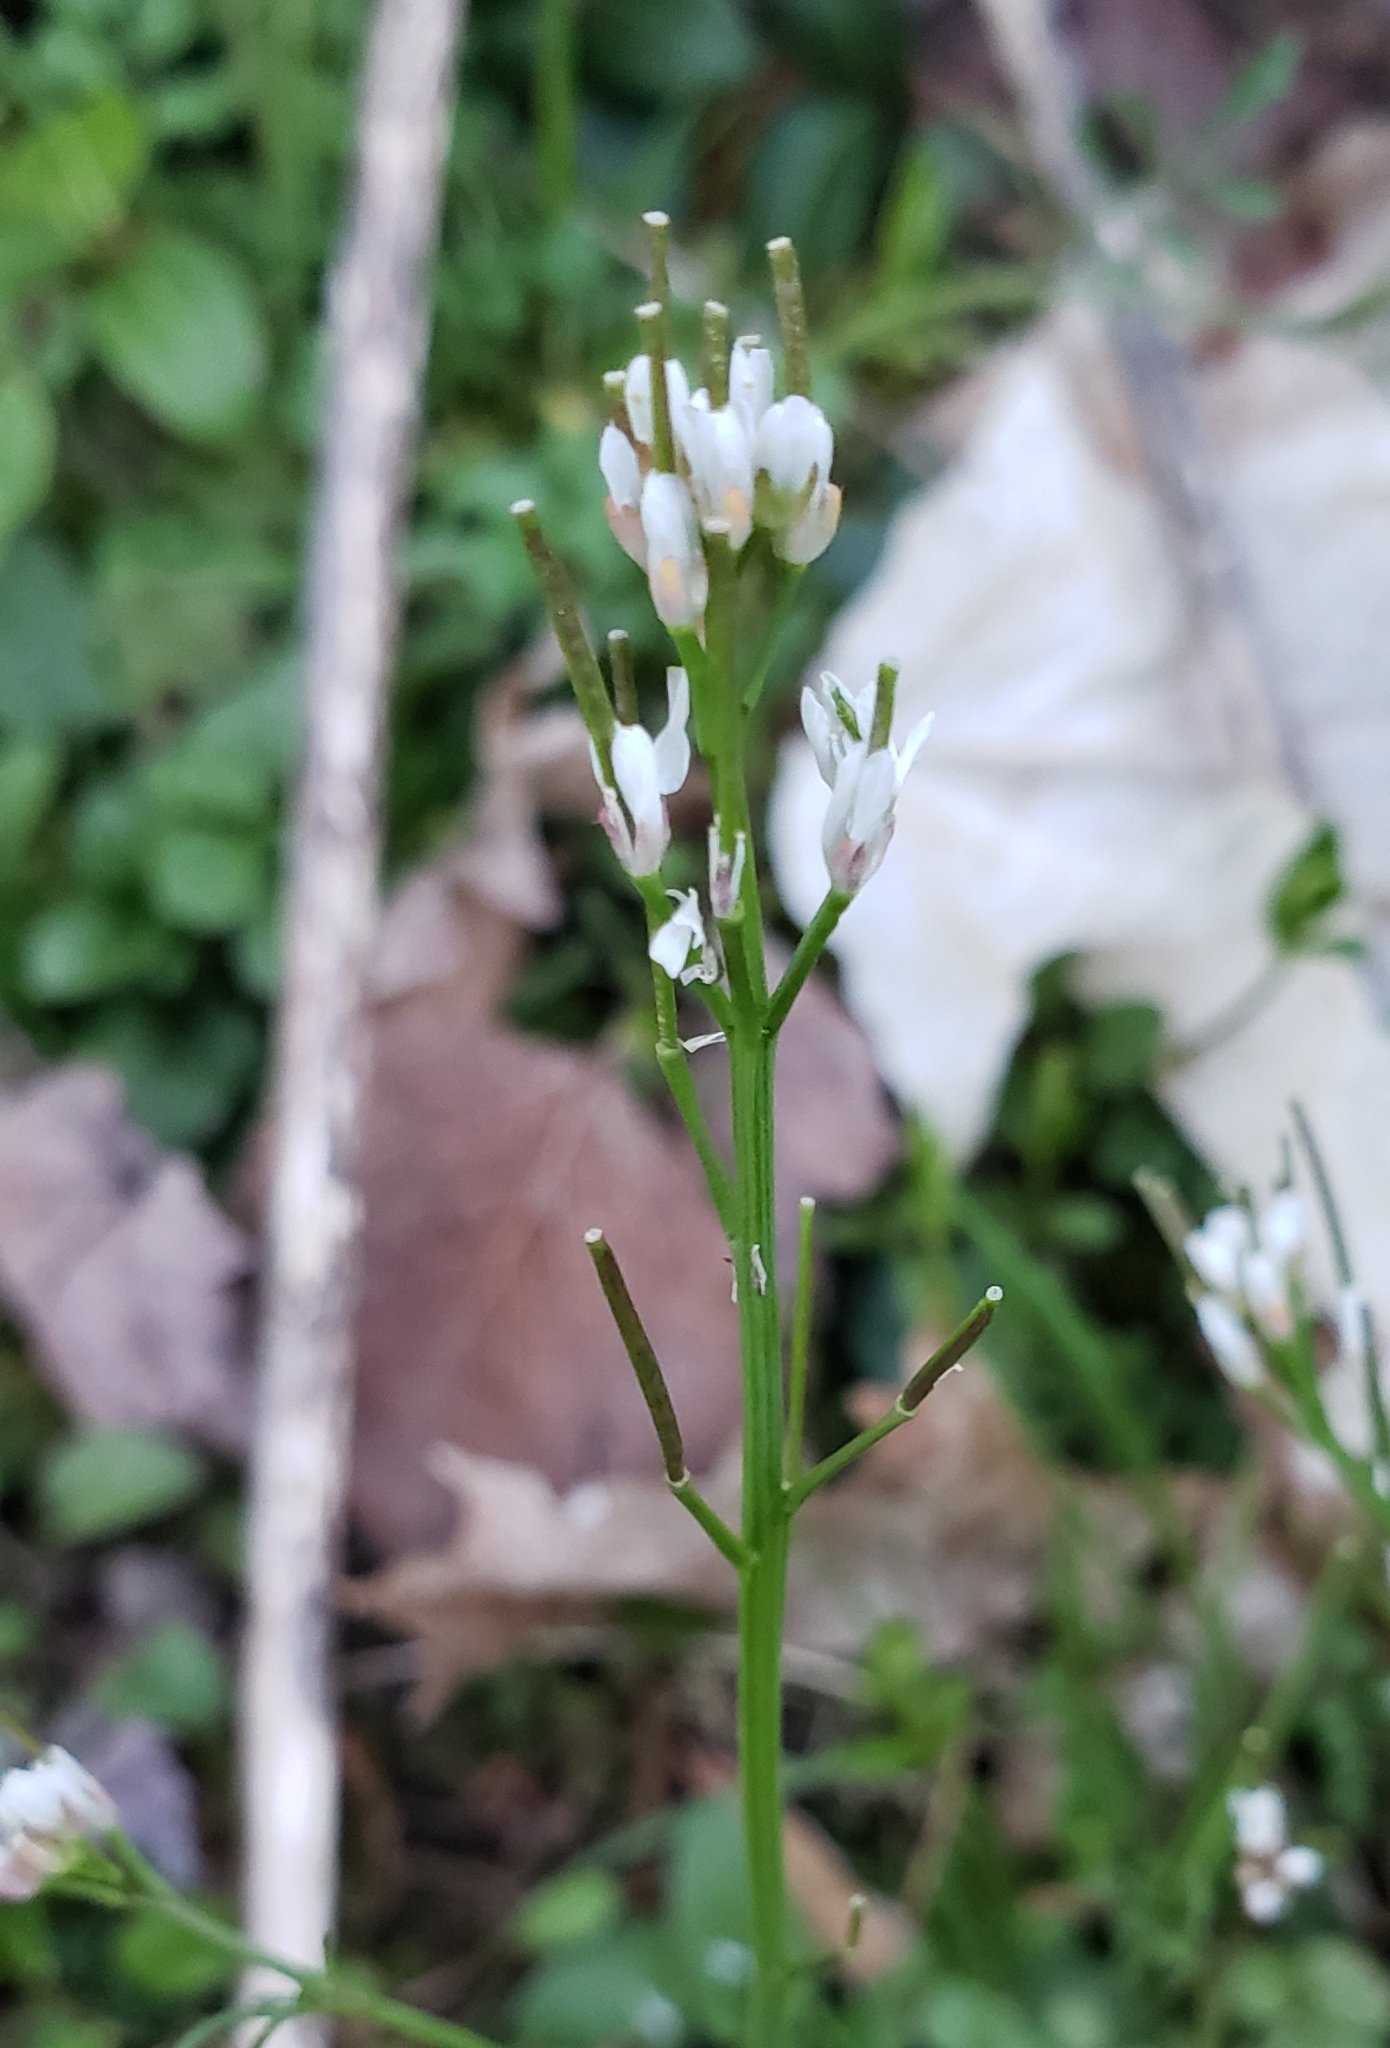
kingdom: Plantae
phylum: Tracheophyta
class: Magnoliopsida
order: Brassicales
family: Brassicaceae
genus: Cardamine
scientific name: Cardamine hirsuta
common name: Hairy bittercress
